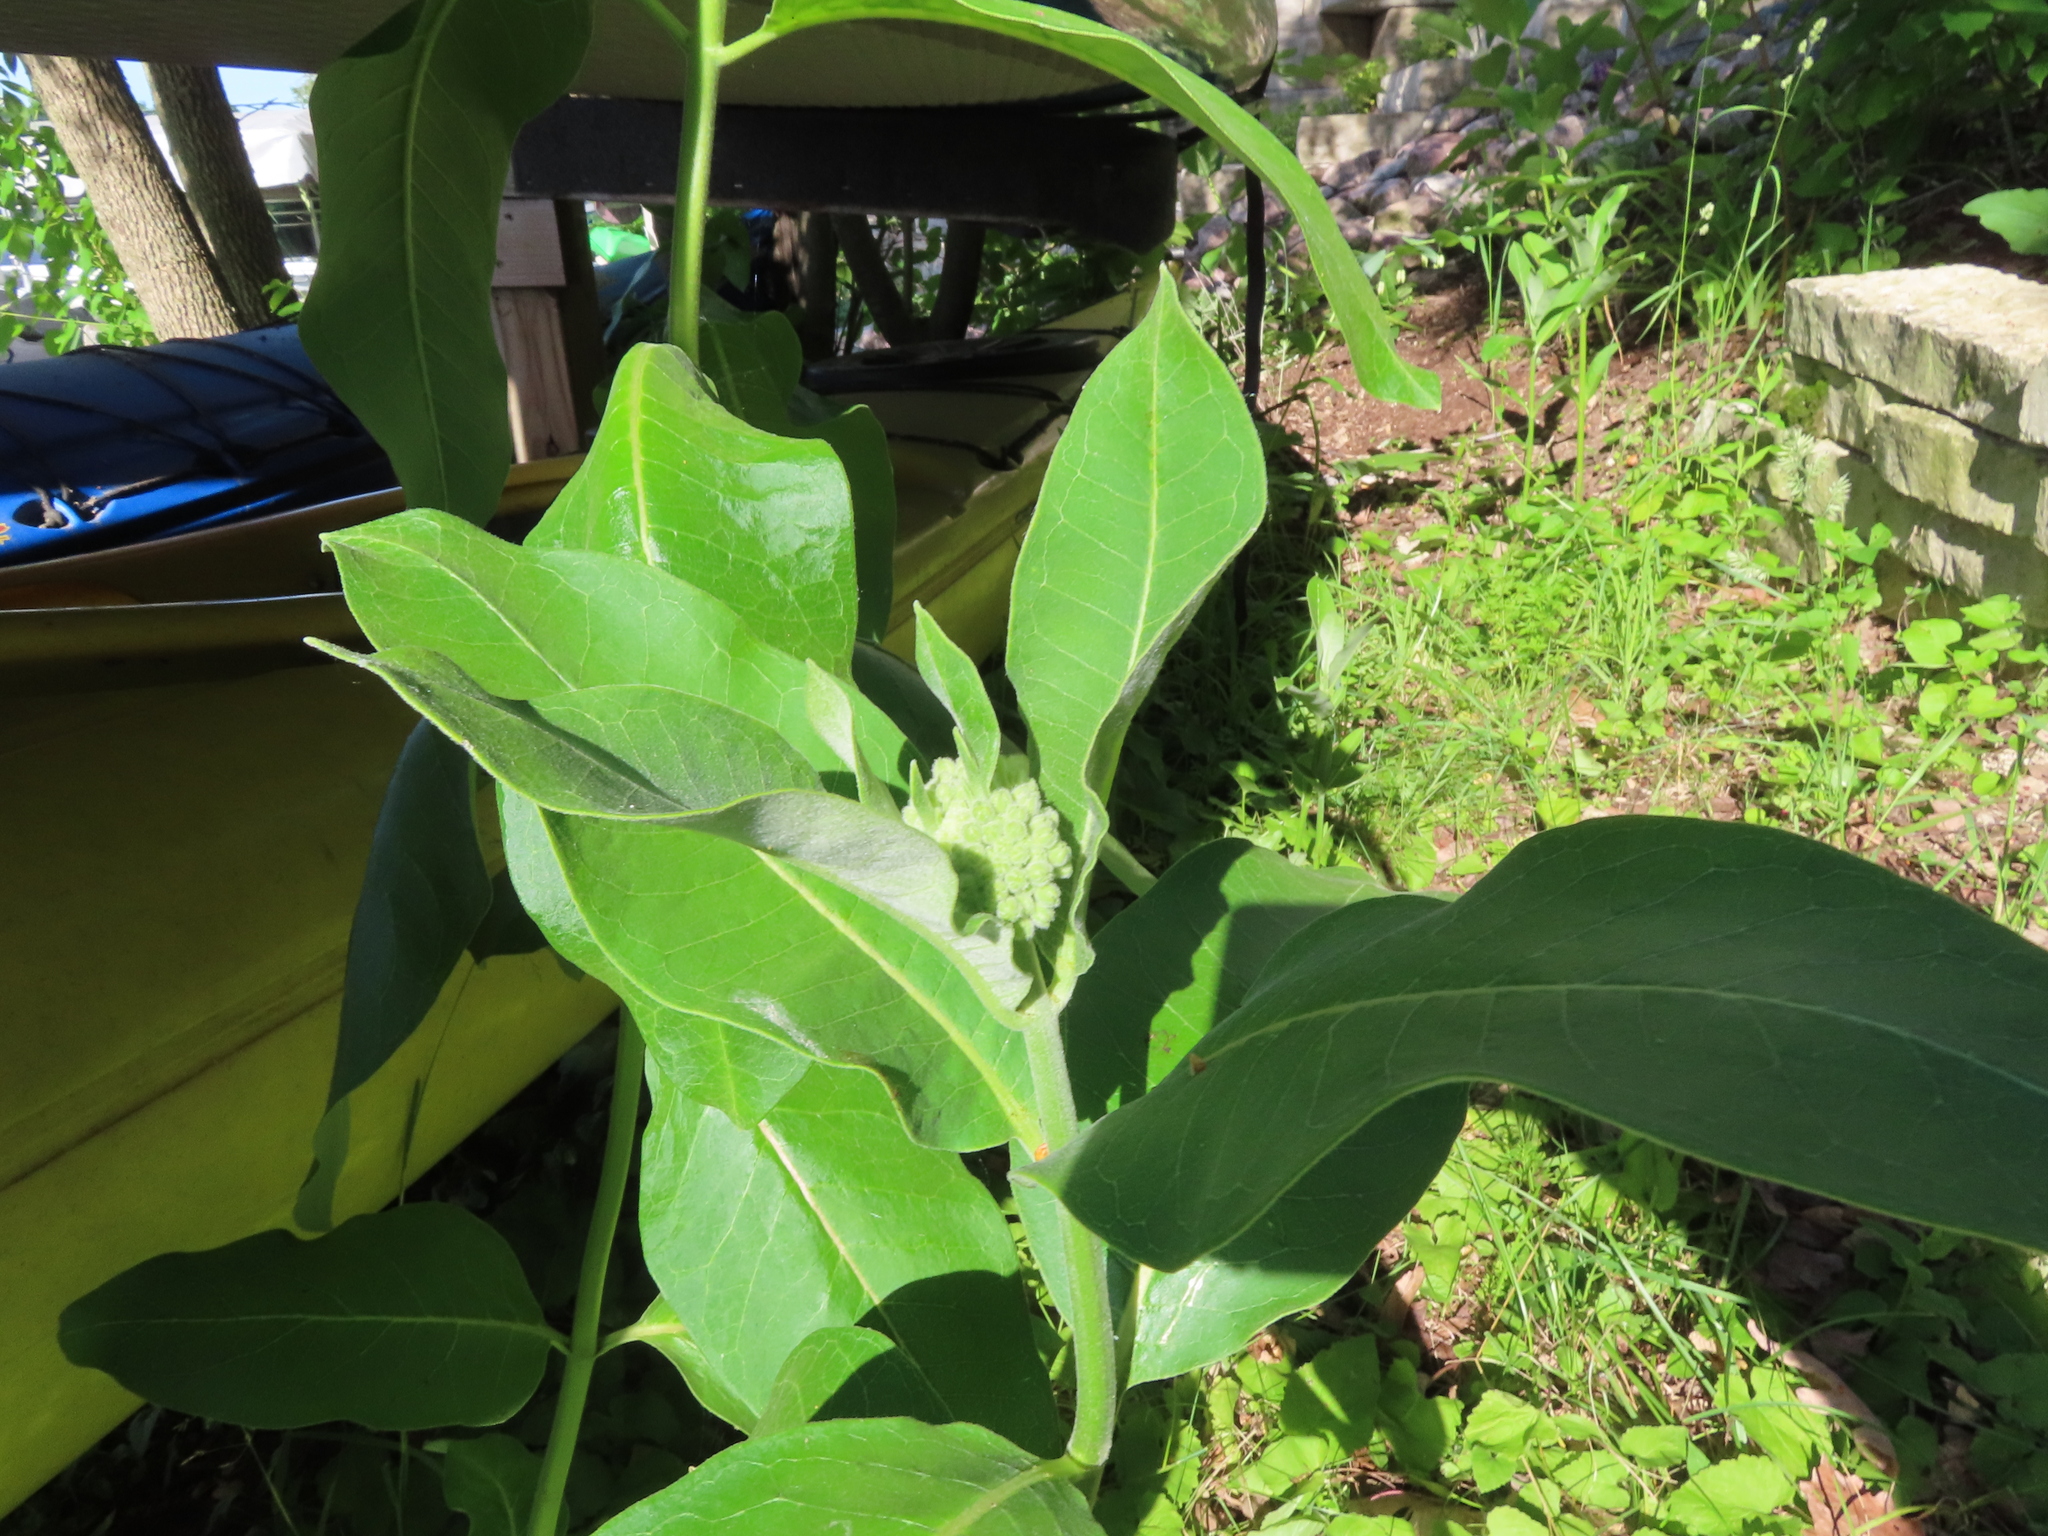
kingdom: Plantae
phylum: Tracheophyta
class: Magnoliopsida
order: Gentianales
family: Apocynaceae
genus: Asclepias
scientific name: Asclepias syriaca
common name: Common milkweed
